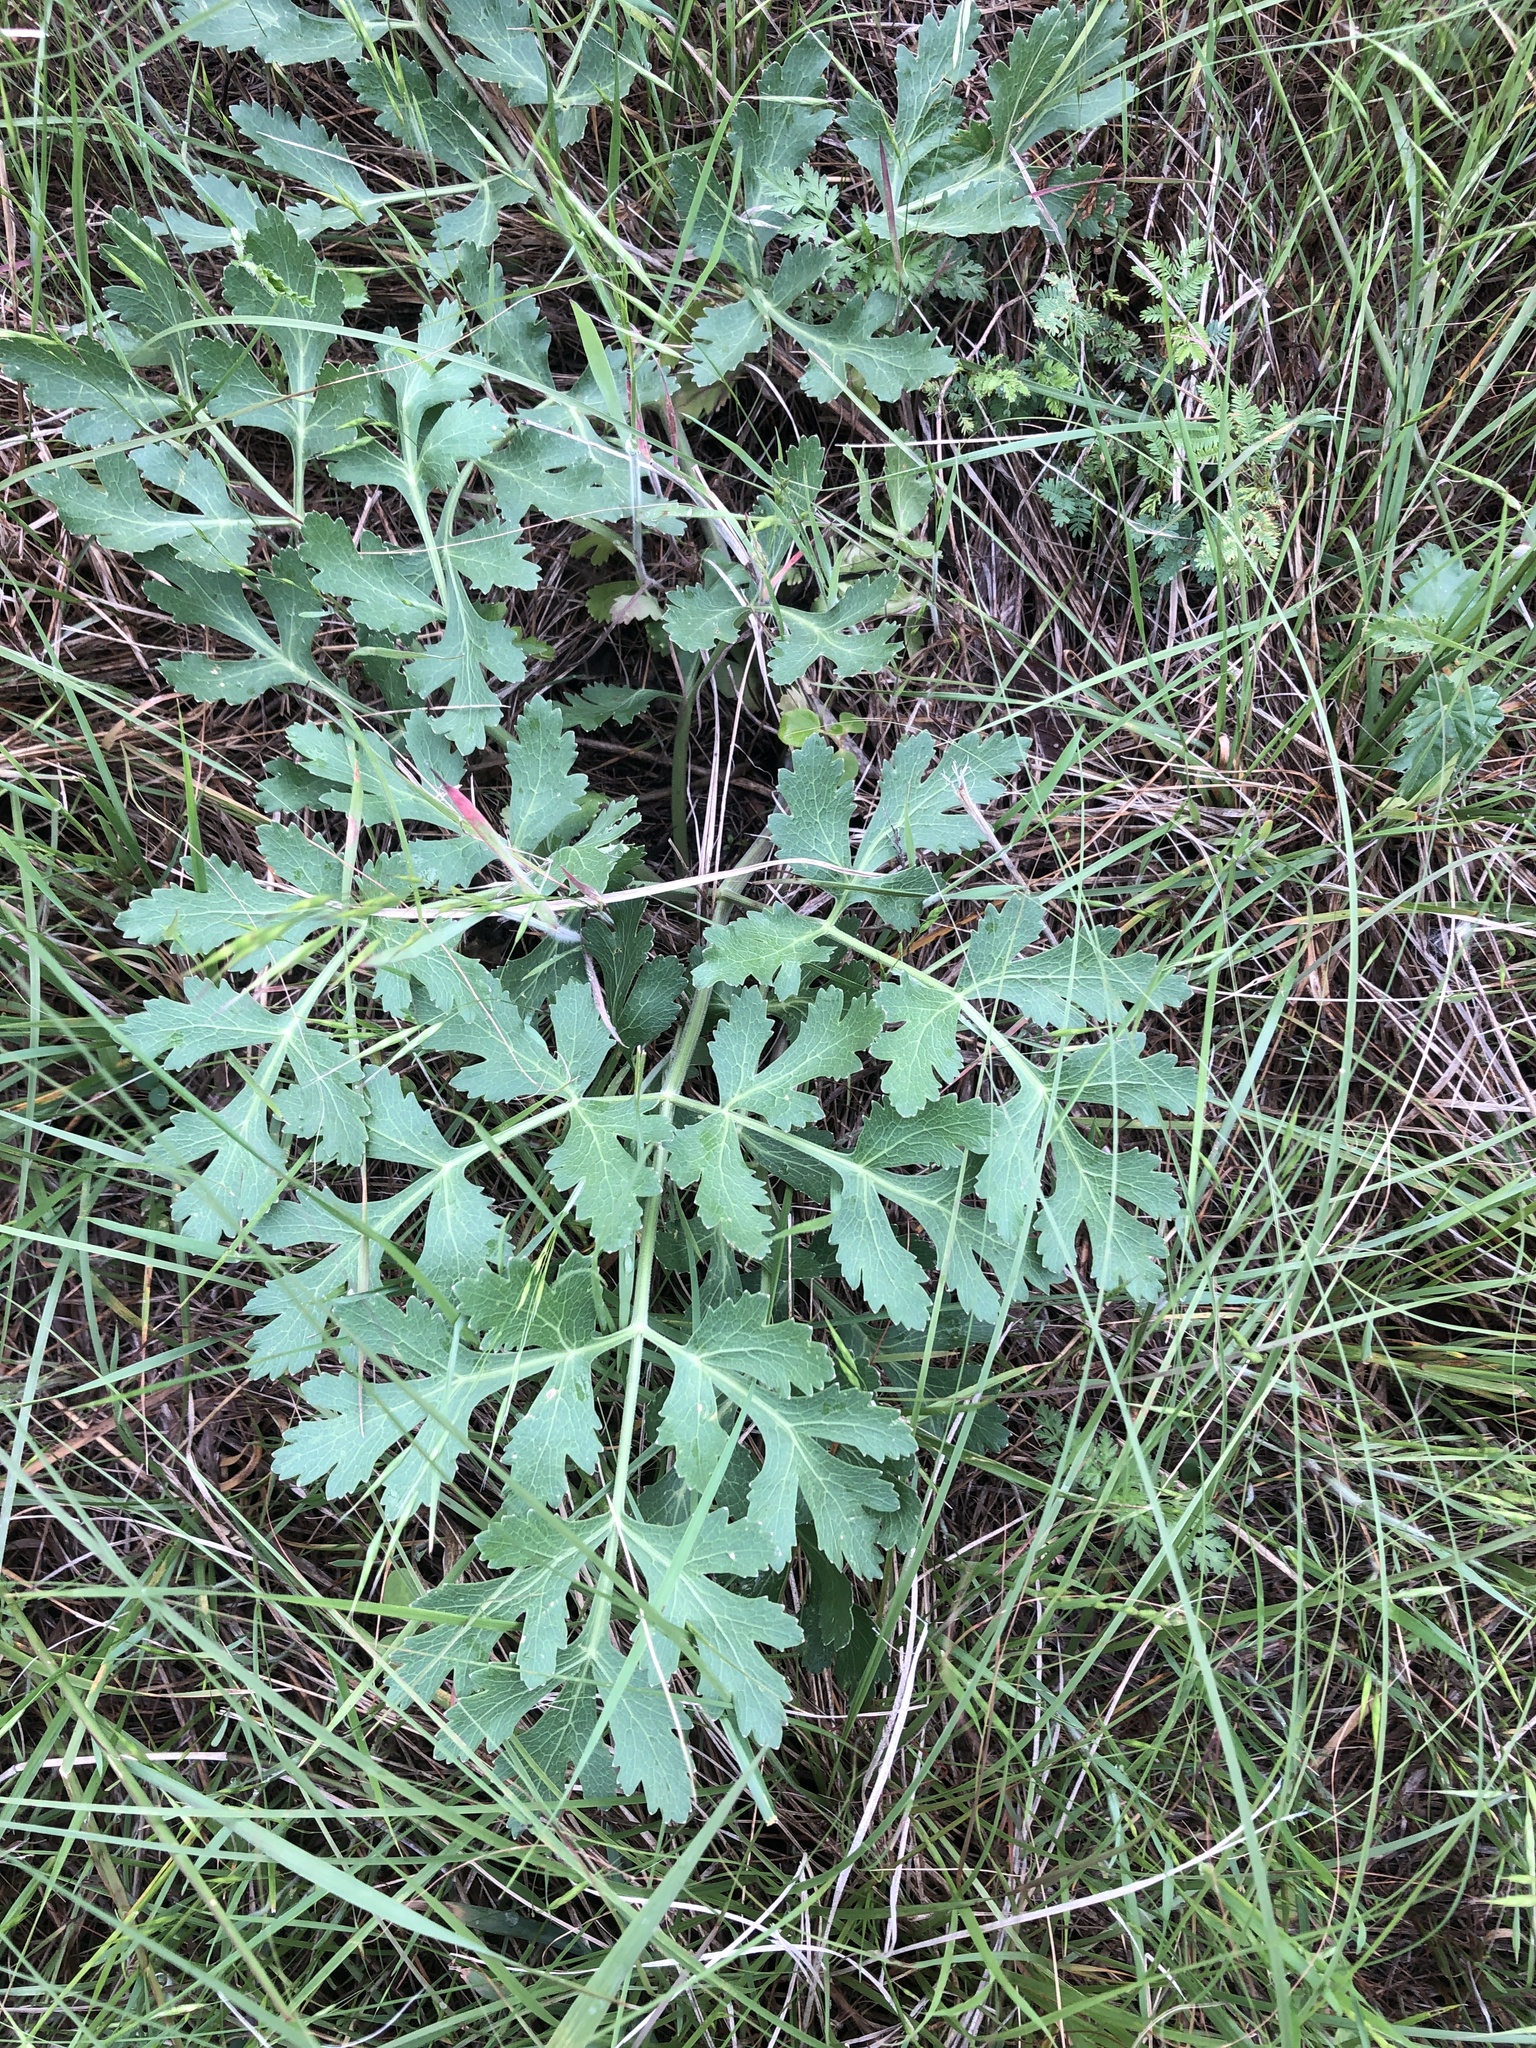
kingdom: Plantae
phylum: Tracheophyta
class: Magnoliopsida
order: Apiales
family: Apiaceae
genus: Polytaenia
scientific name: Polytaenia texana
